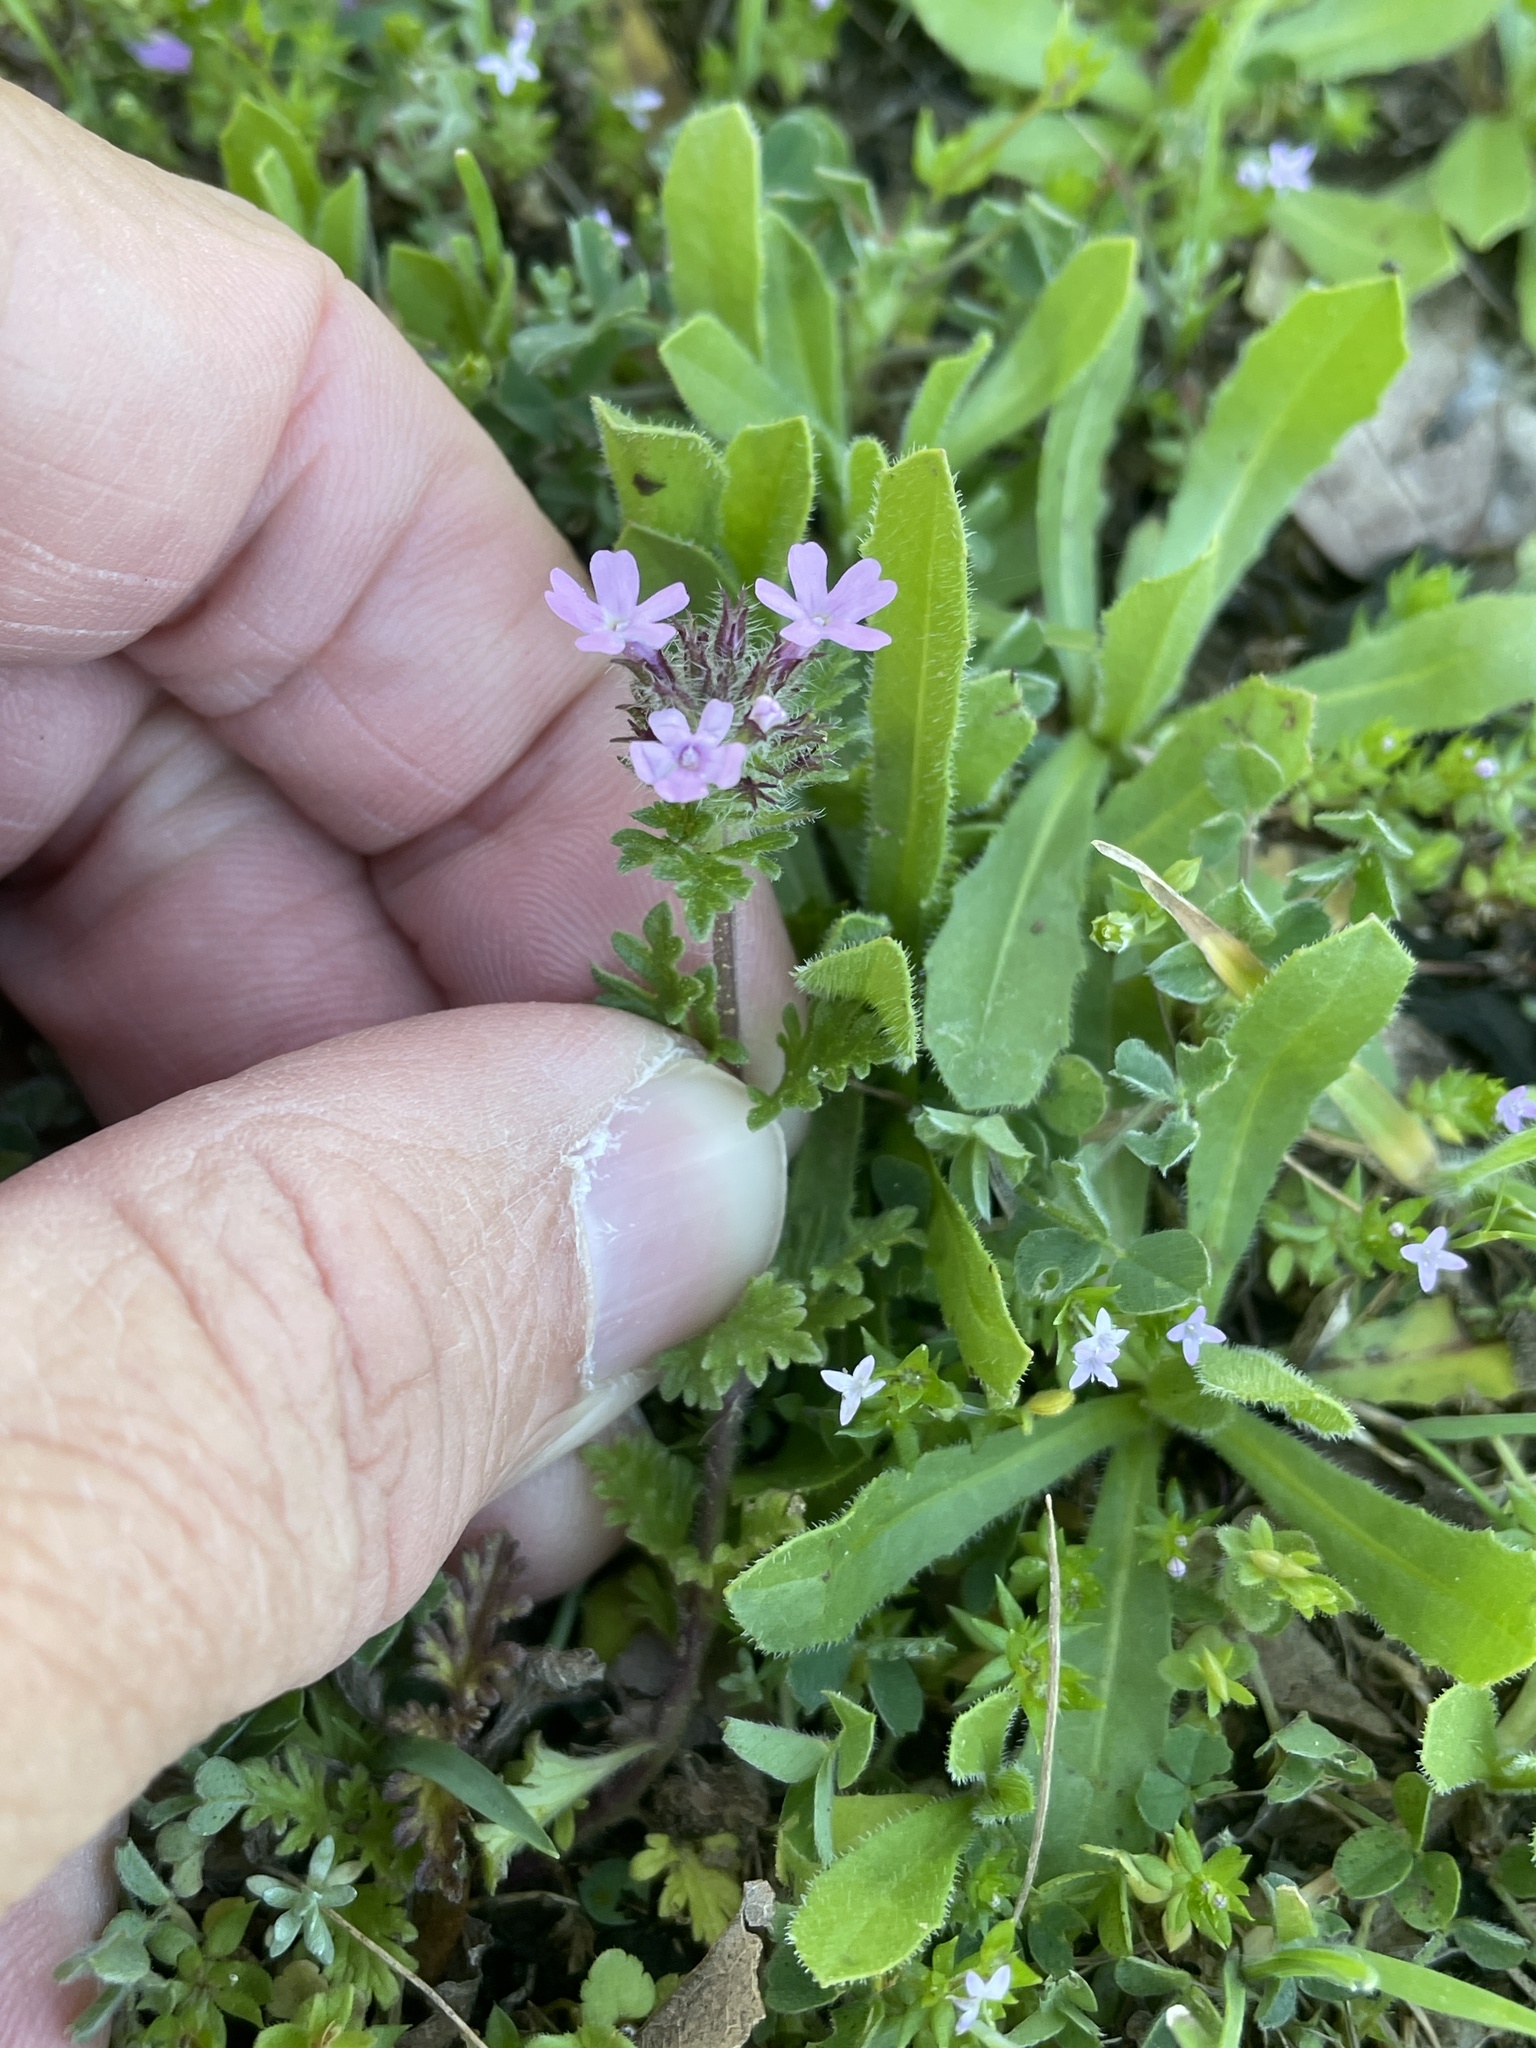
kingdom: Plantae
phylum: Tracheophyta
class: Magnoliopsida
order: Lamiales
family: Verbenaceae
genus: Verbena
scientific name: Verbena pumila
